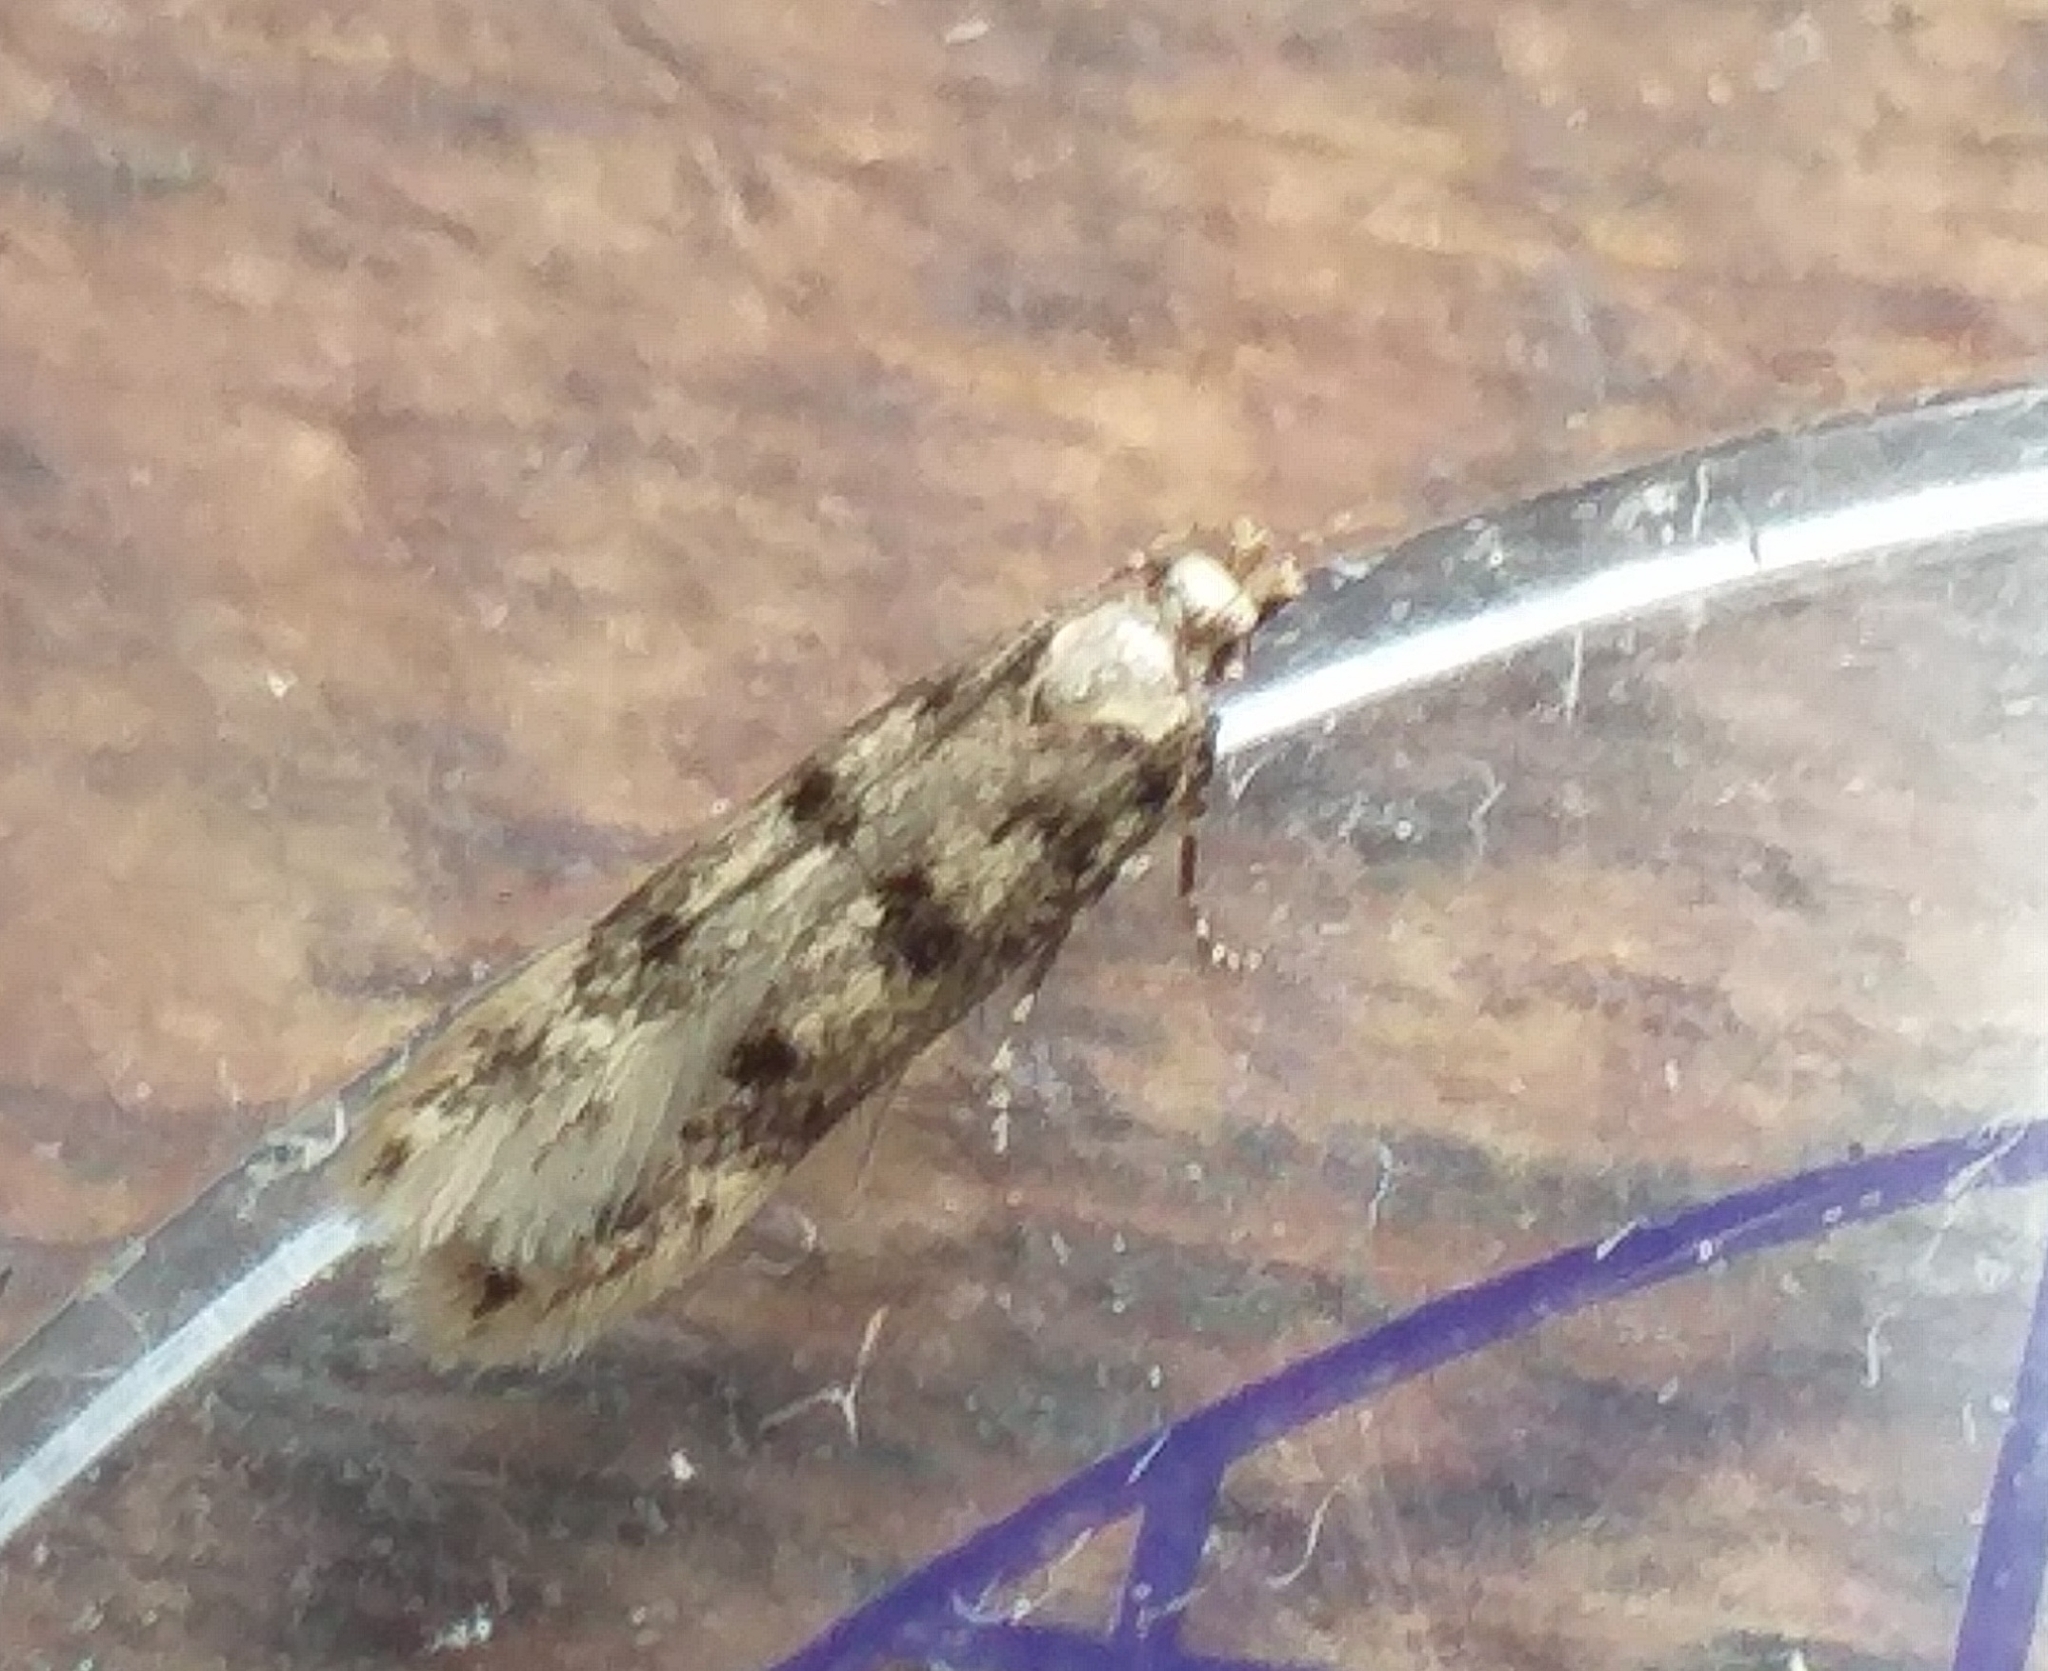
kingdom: Animalia
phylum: Arthropoda
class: Insecta
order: Lepidoptera
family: Gelechiidae
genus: Bryotropha
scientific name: Bryotropha domestica
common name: House groundling
